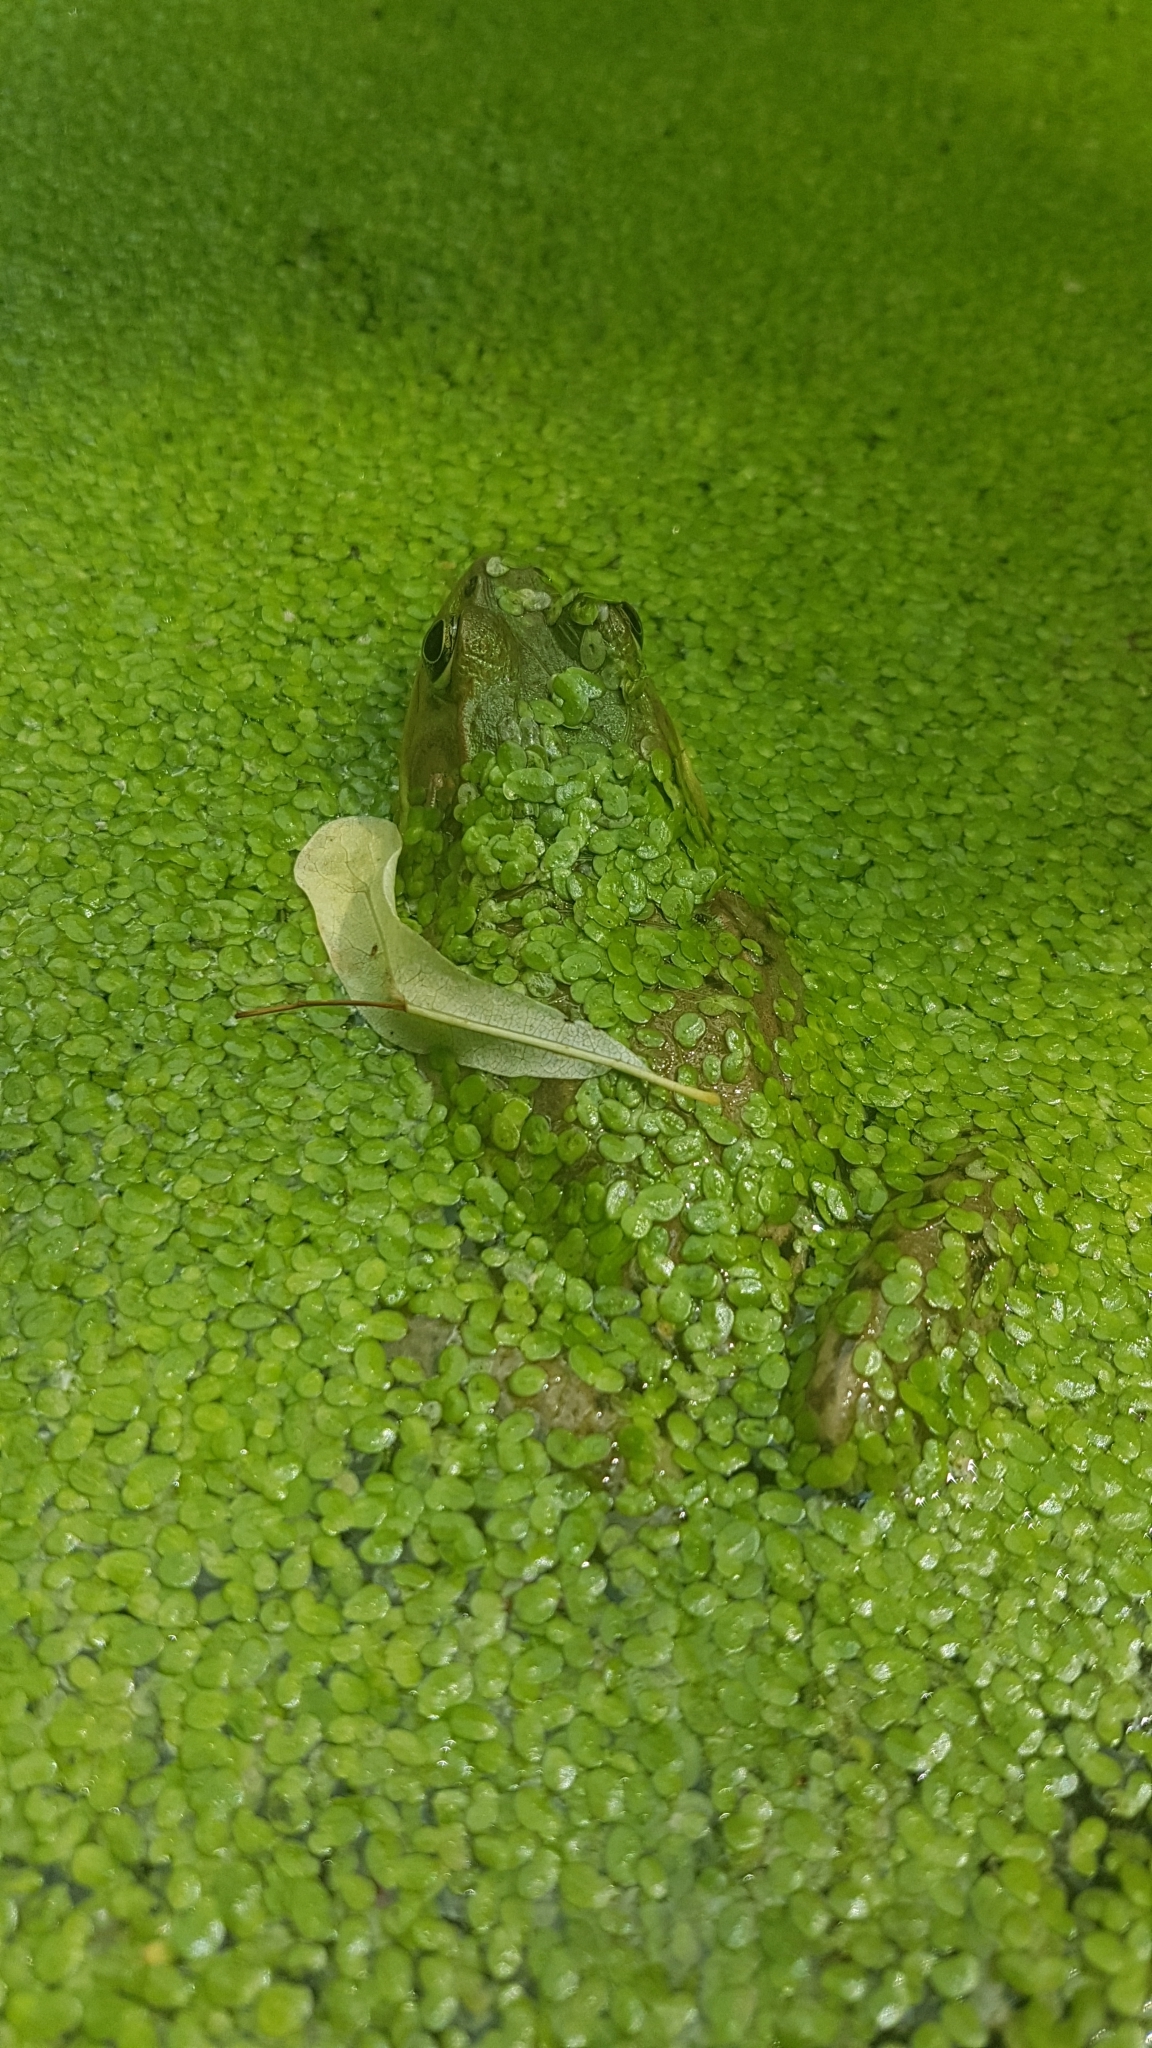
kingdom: Animalia
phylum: Chordata
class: Amphibia
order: Anura
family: Ranidae
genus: Lithobates
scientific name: Lithobates clamitans
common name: Green frog
